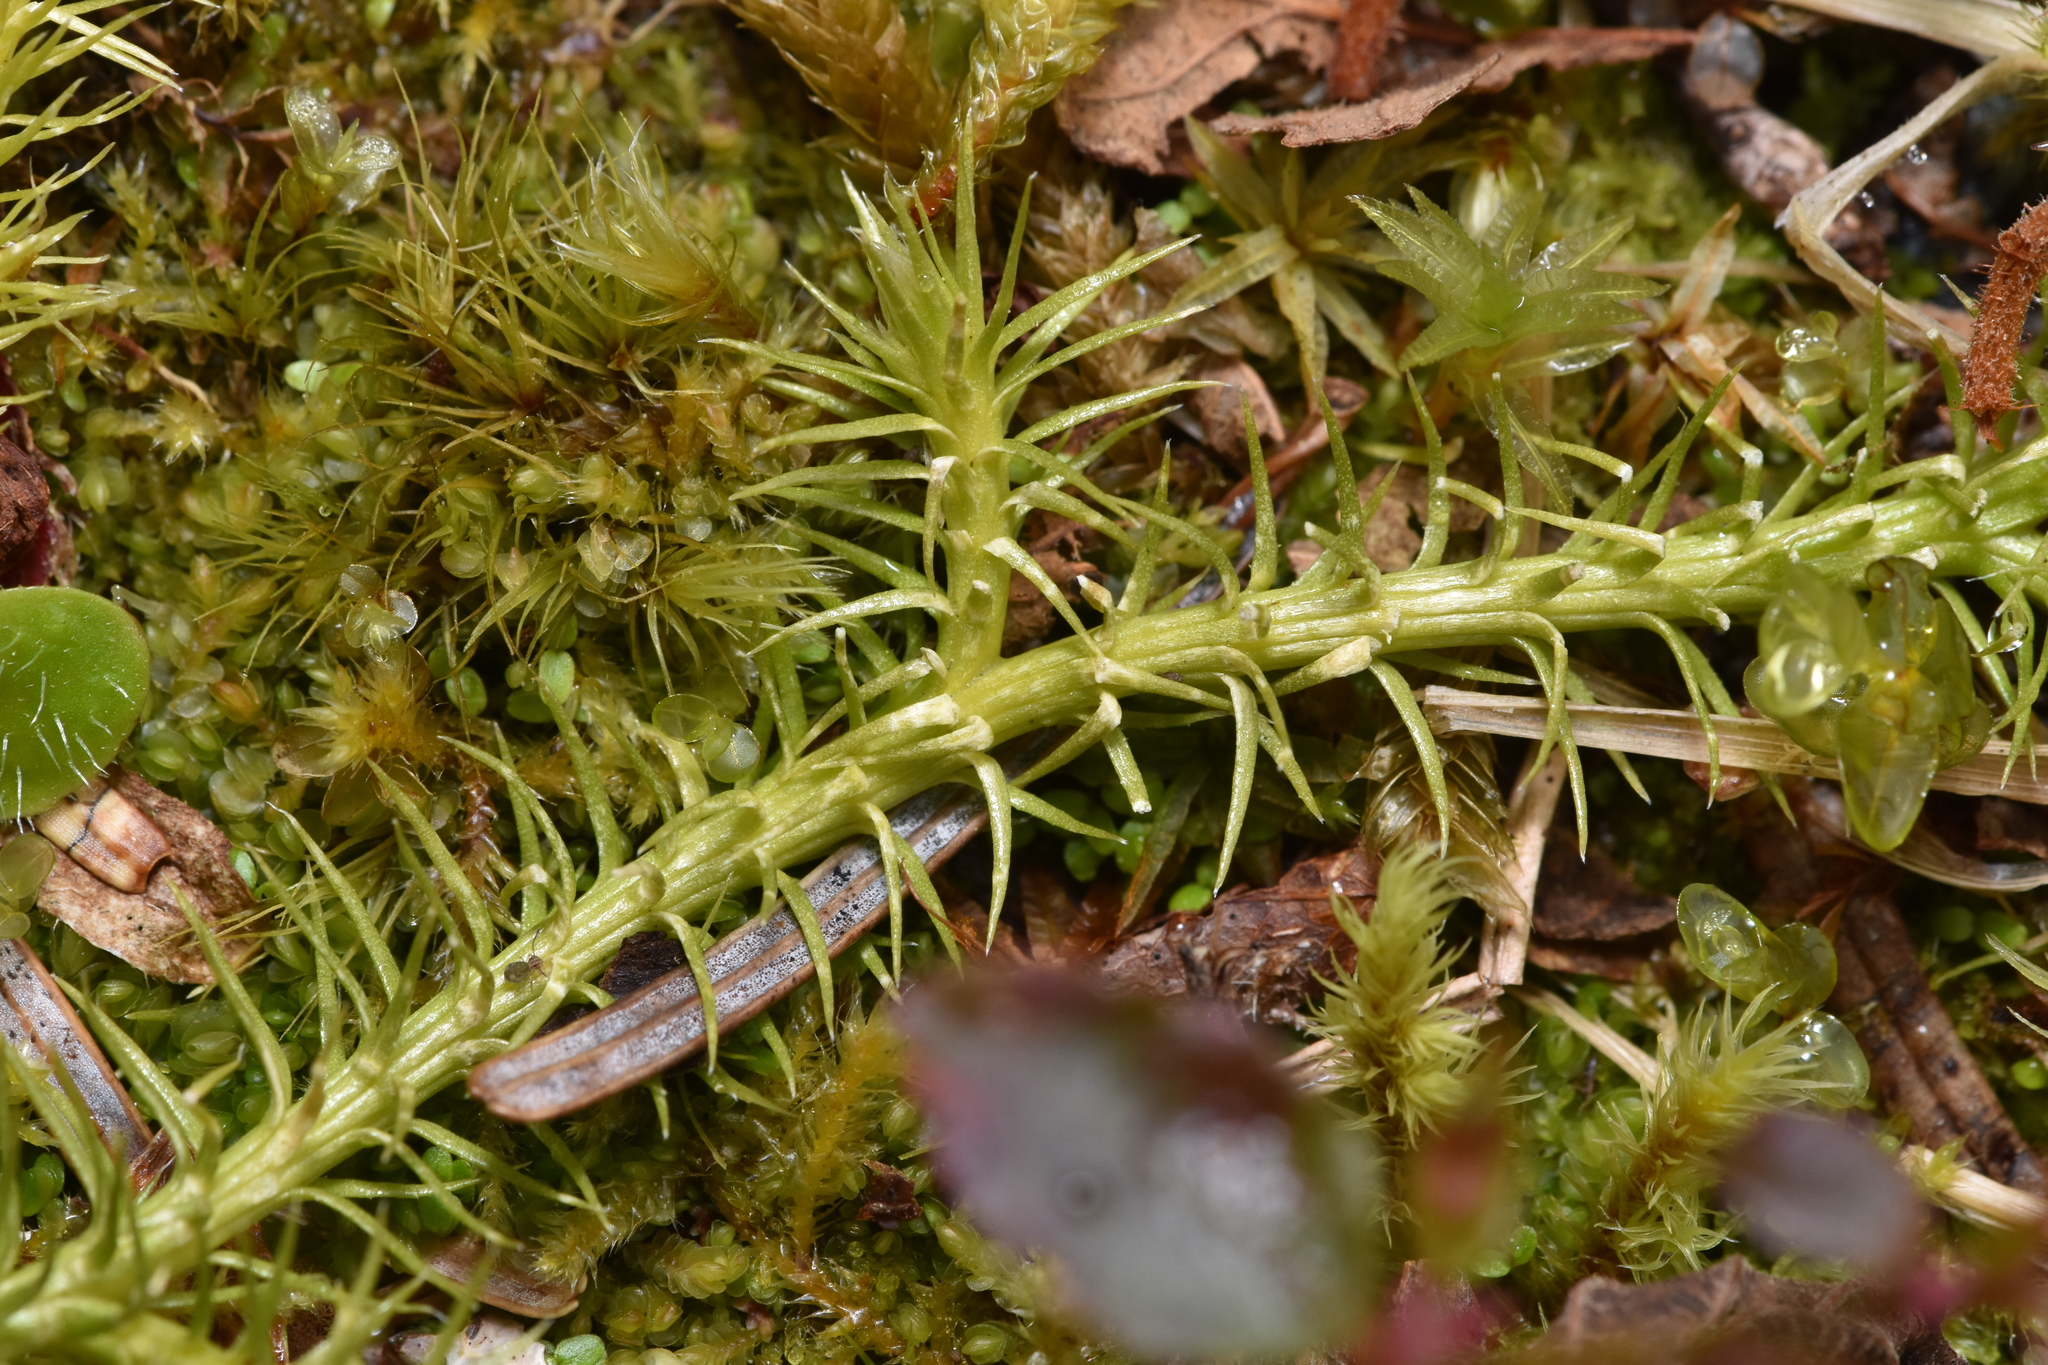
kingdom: Plantae
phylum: Tracheophyta
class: Lycopodiopsida
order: Lycopodiales
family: Lycopodiaceae
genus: Lycopodium
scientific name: Lycopodium clavatum
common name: Stag's-horn clubmoss
